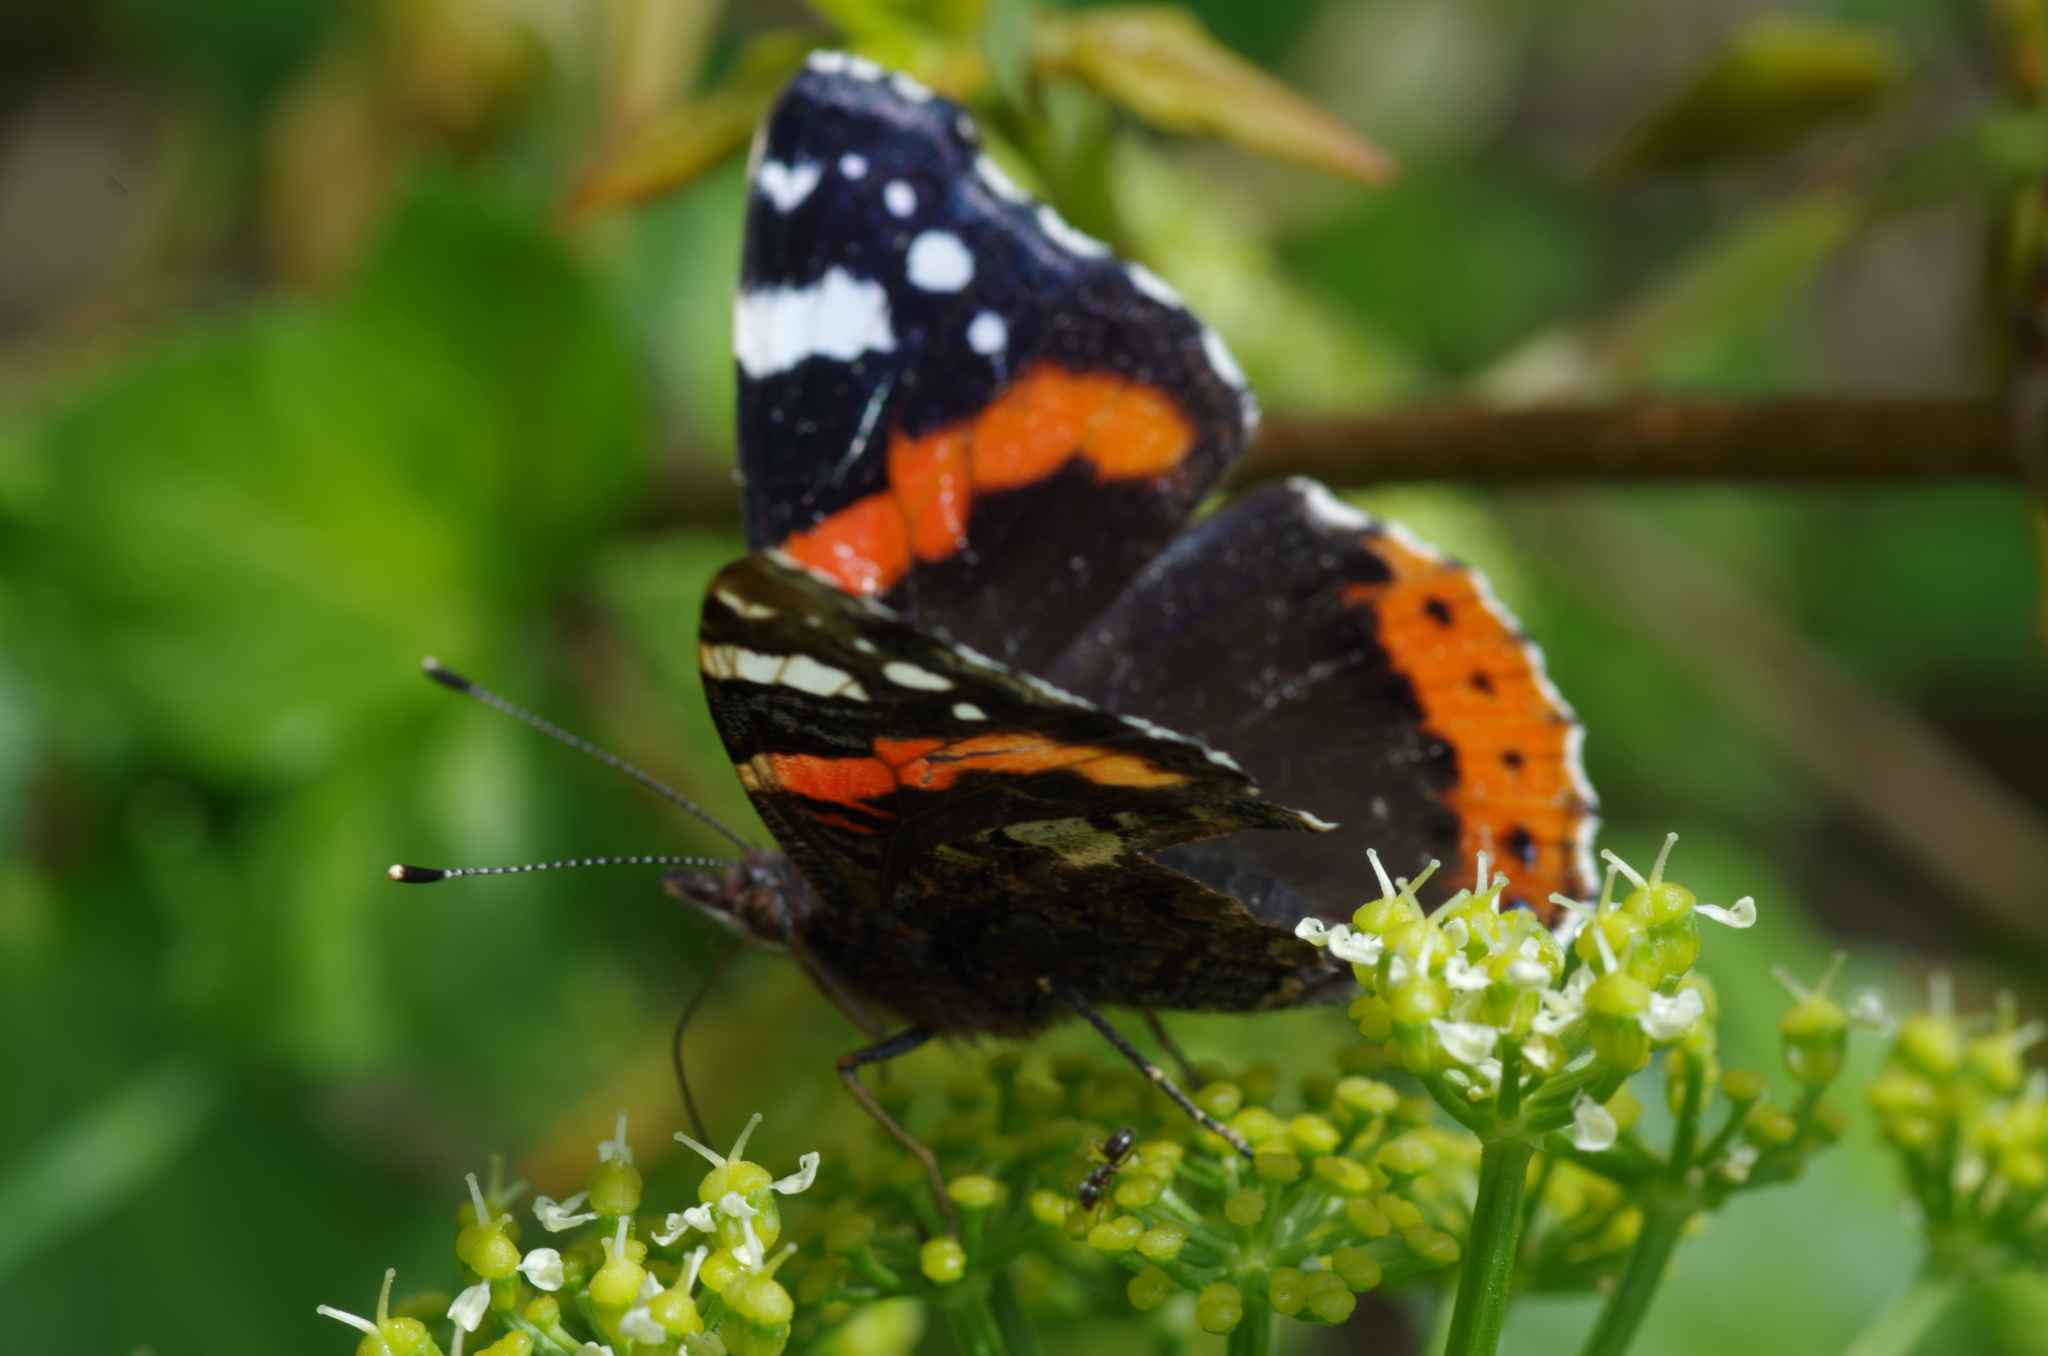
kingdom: Animalia
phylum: Arthropoda
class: Insecta
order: Lepidoptera
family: Nymphalidae
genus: Vanessa
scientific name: Vanessa atalanta
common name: Red admiral
